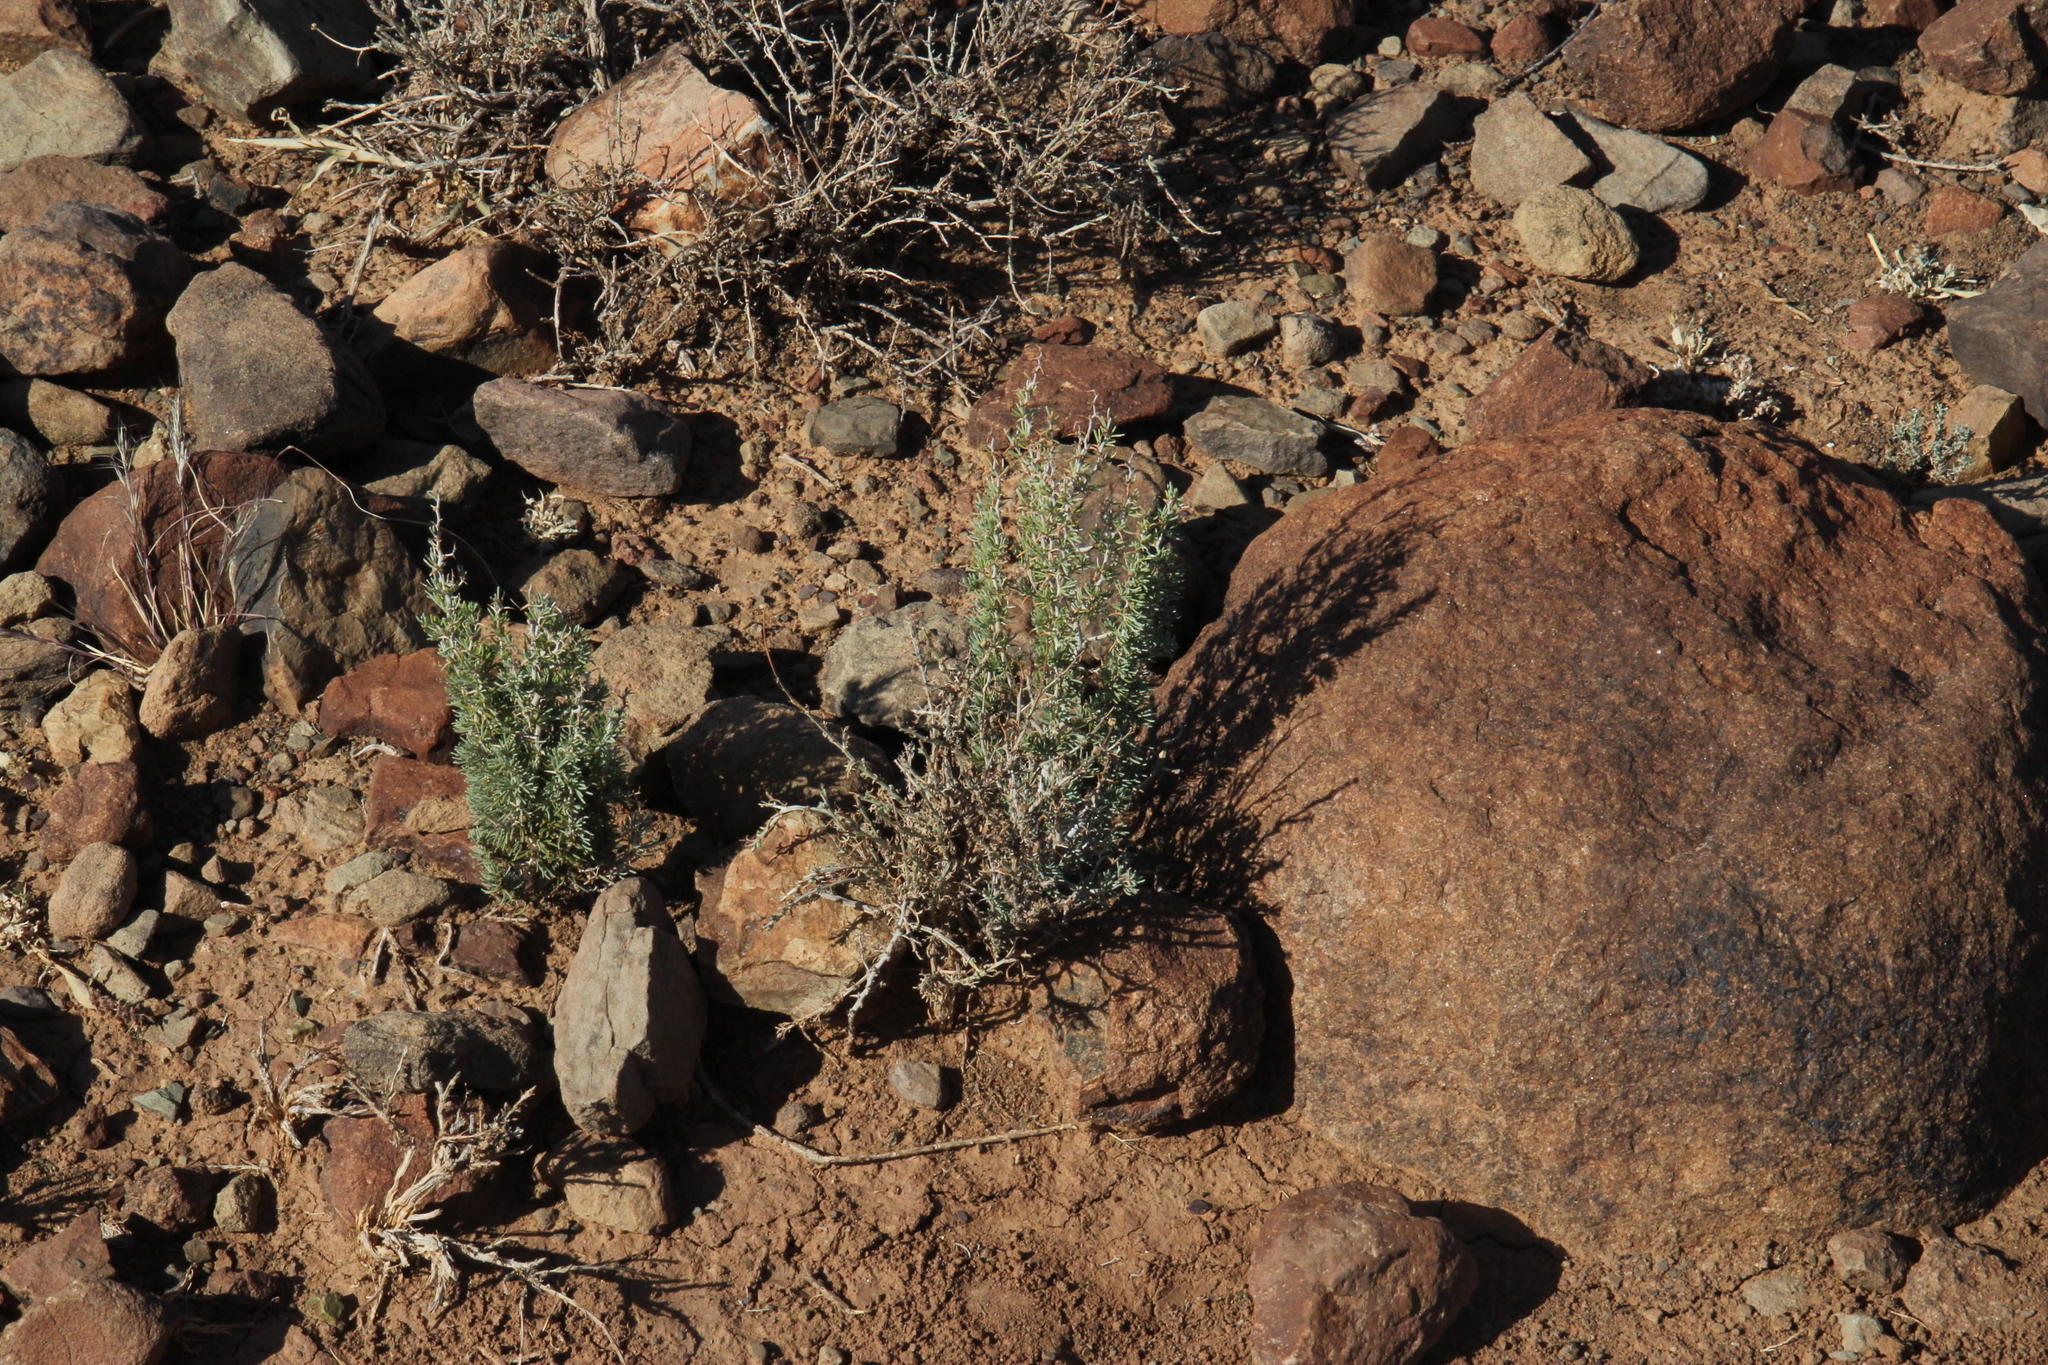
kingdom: Plantae
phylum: Tracheophyta
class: Liliopsida
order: Asparagales
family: Asparagaceae
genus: Asparagus
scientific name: Asparagus acocksii
